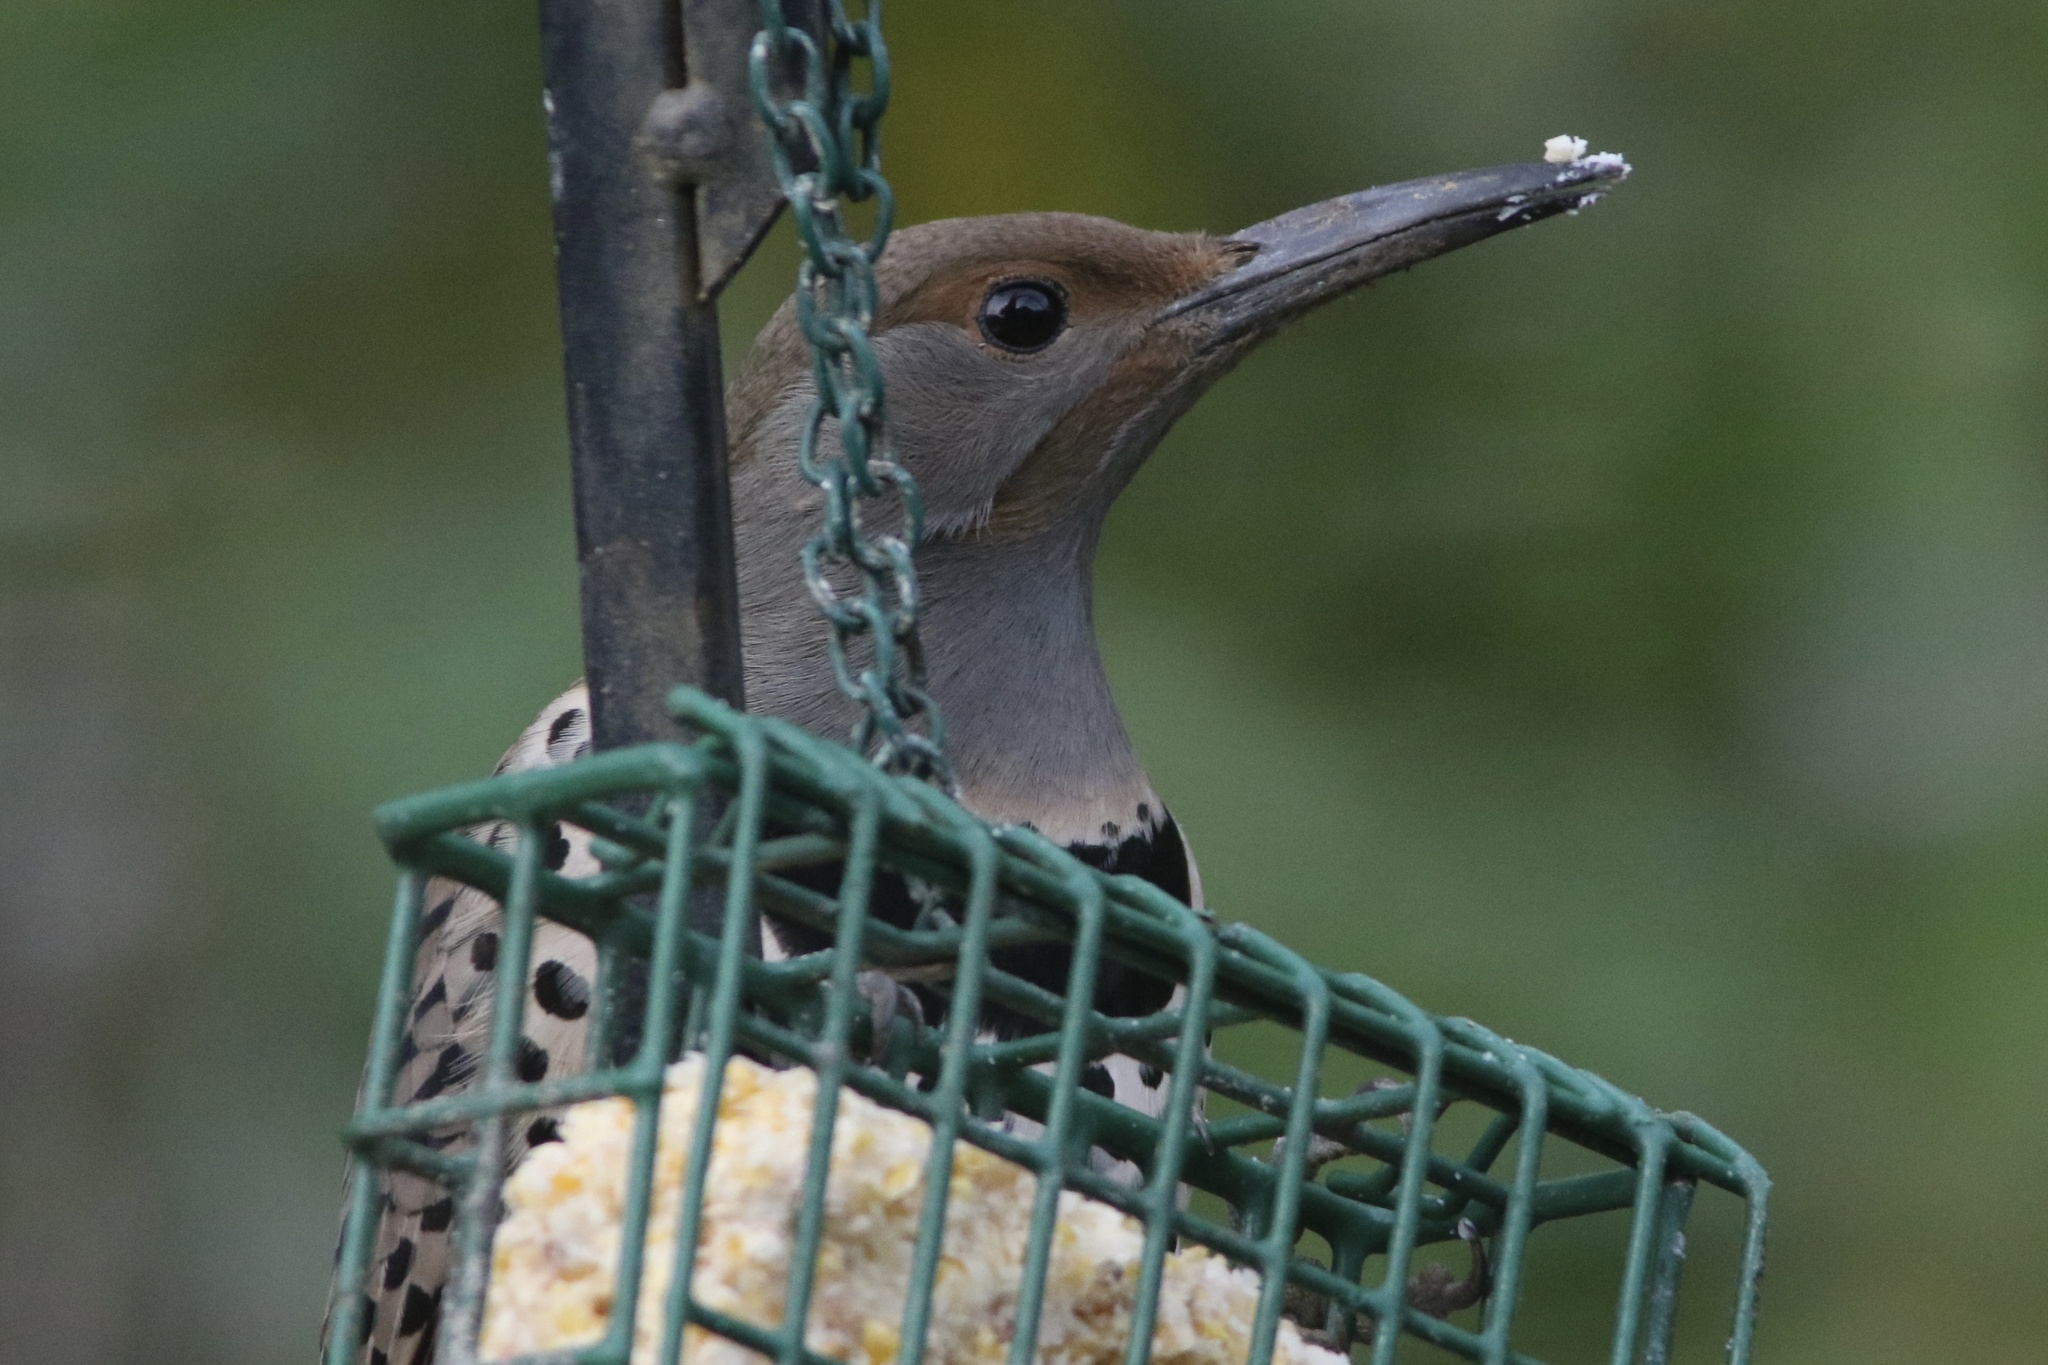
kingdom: Animalia
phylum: Chordata
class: Aves
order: Piciformes
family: Picidae
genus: Colaptes
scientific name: Colaptes auratus
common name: Northern flicker
